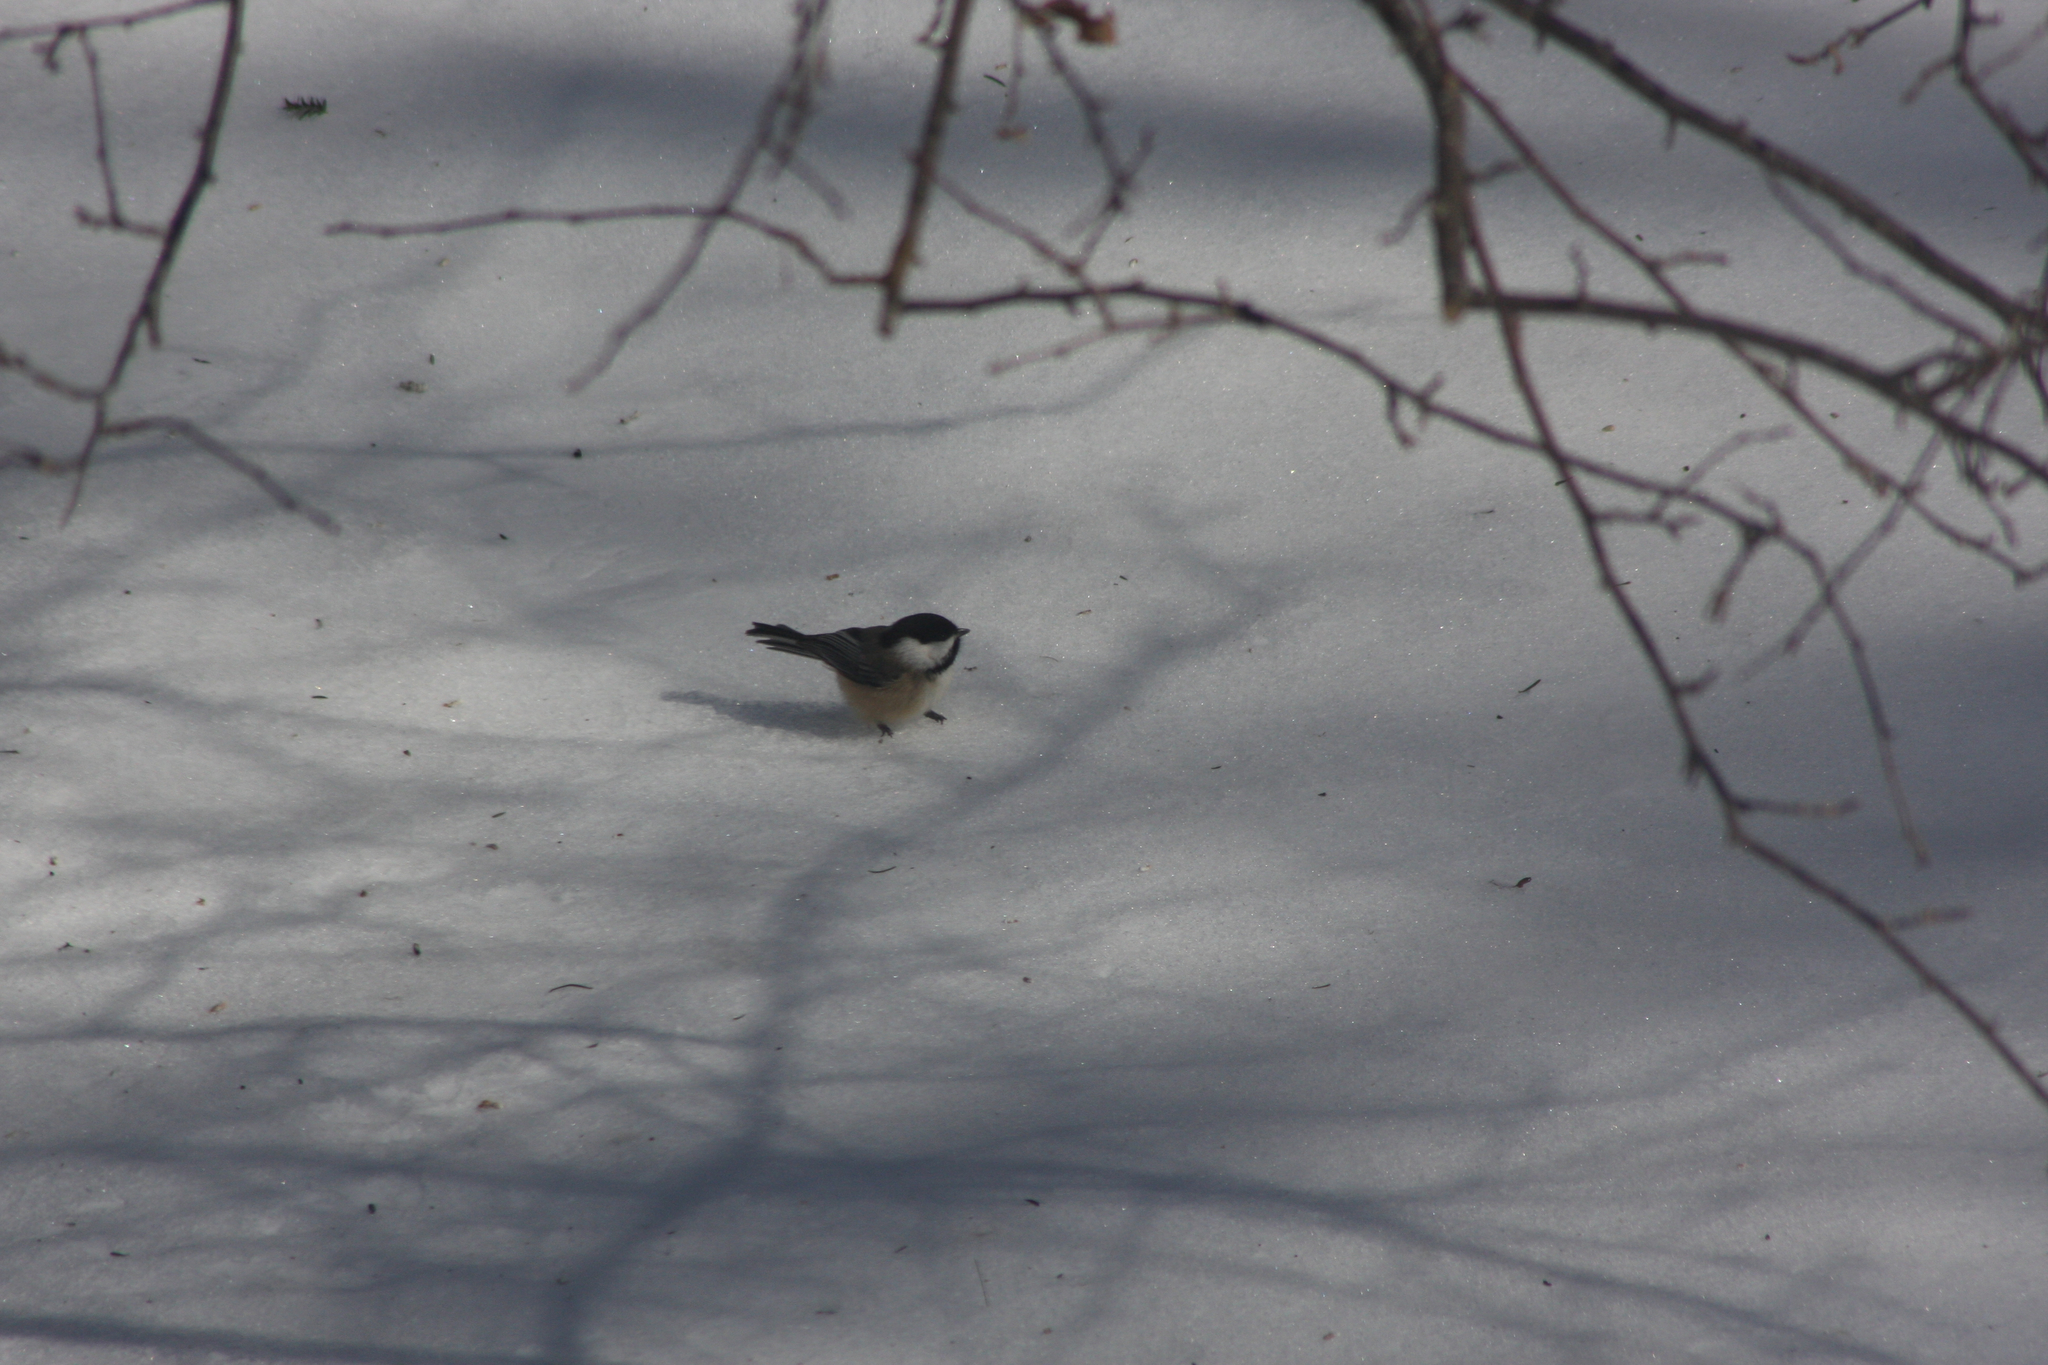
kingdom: Animalia
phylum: Chordata
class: Aves
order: Passeriformes
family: Paridae
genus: Poecile
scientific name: Poecile atricapillus
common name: Black-capped chickadee
